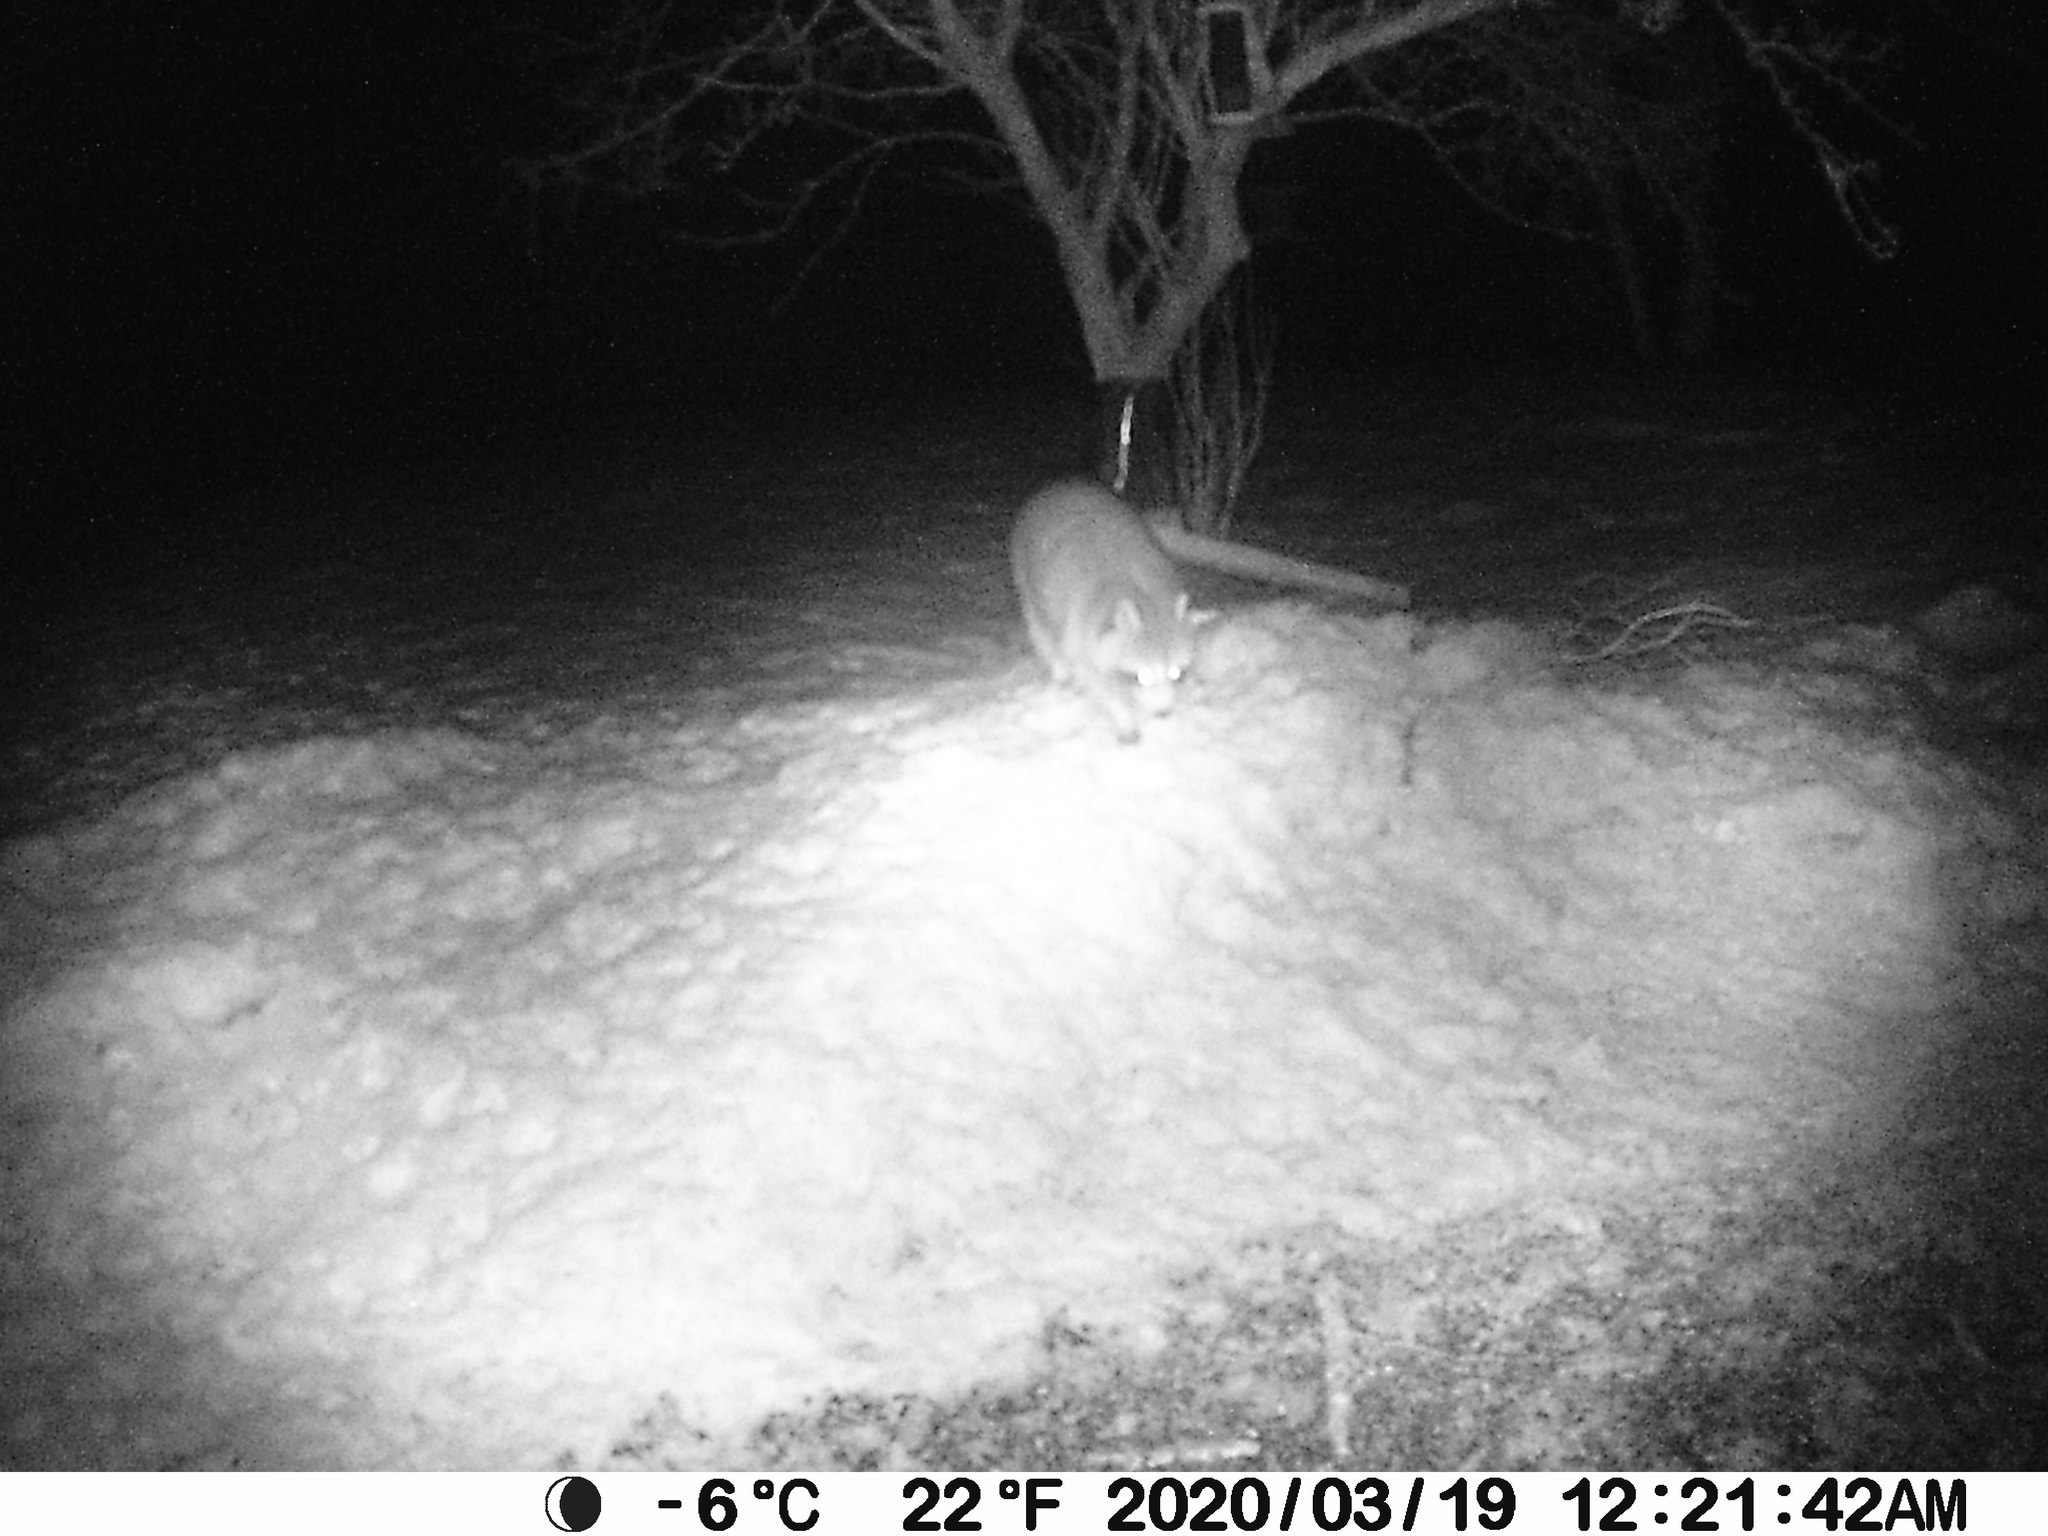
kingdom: Animalia
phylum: Chordata
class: Mammalia
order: Carnivora
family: Procyonidae
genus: Procyon
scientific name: Procyon lotor
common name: Raccoon
